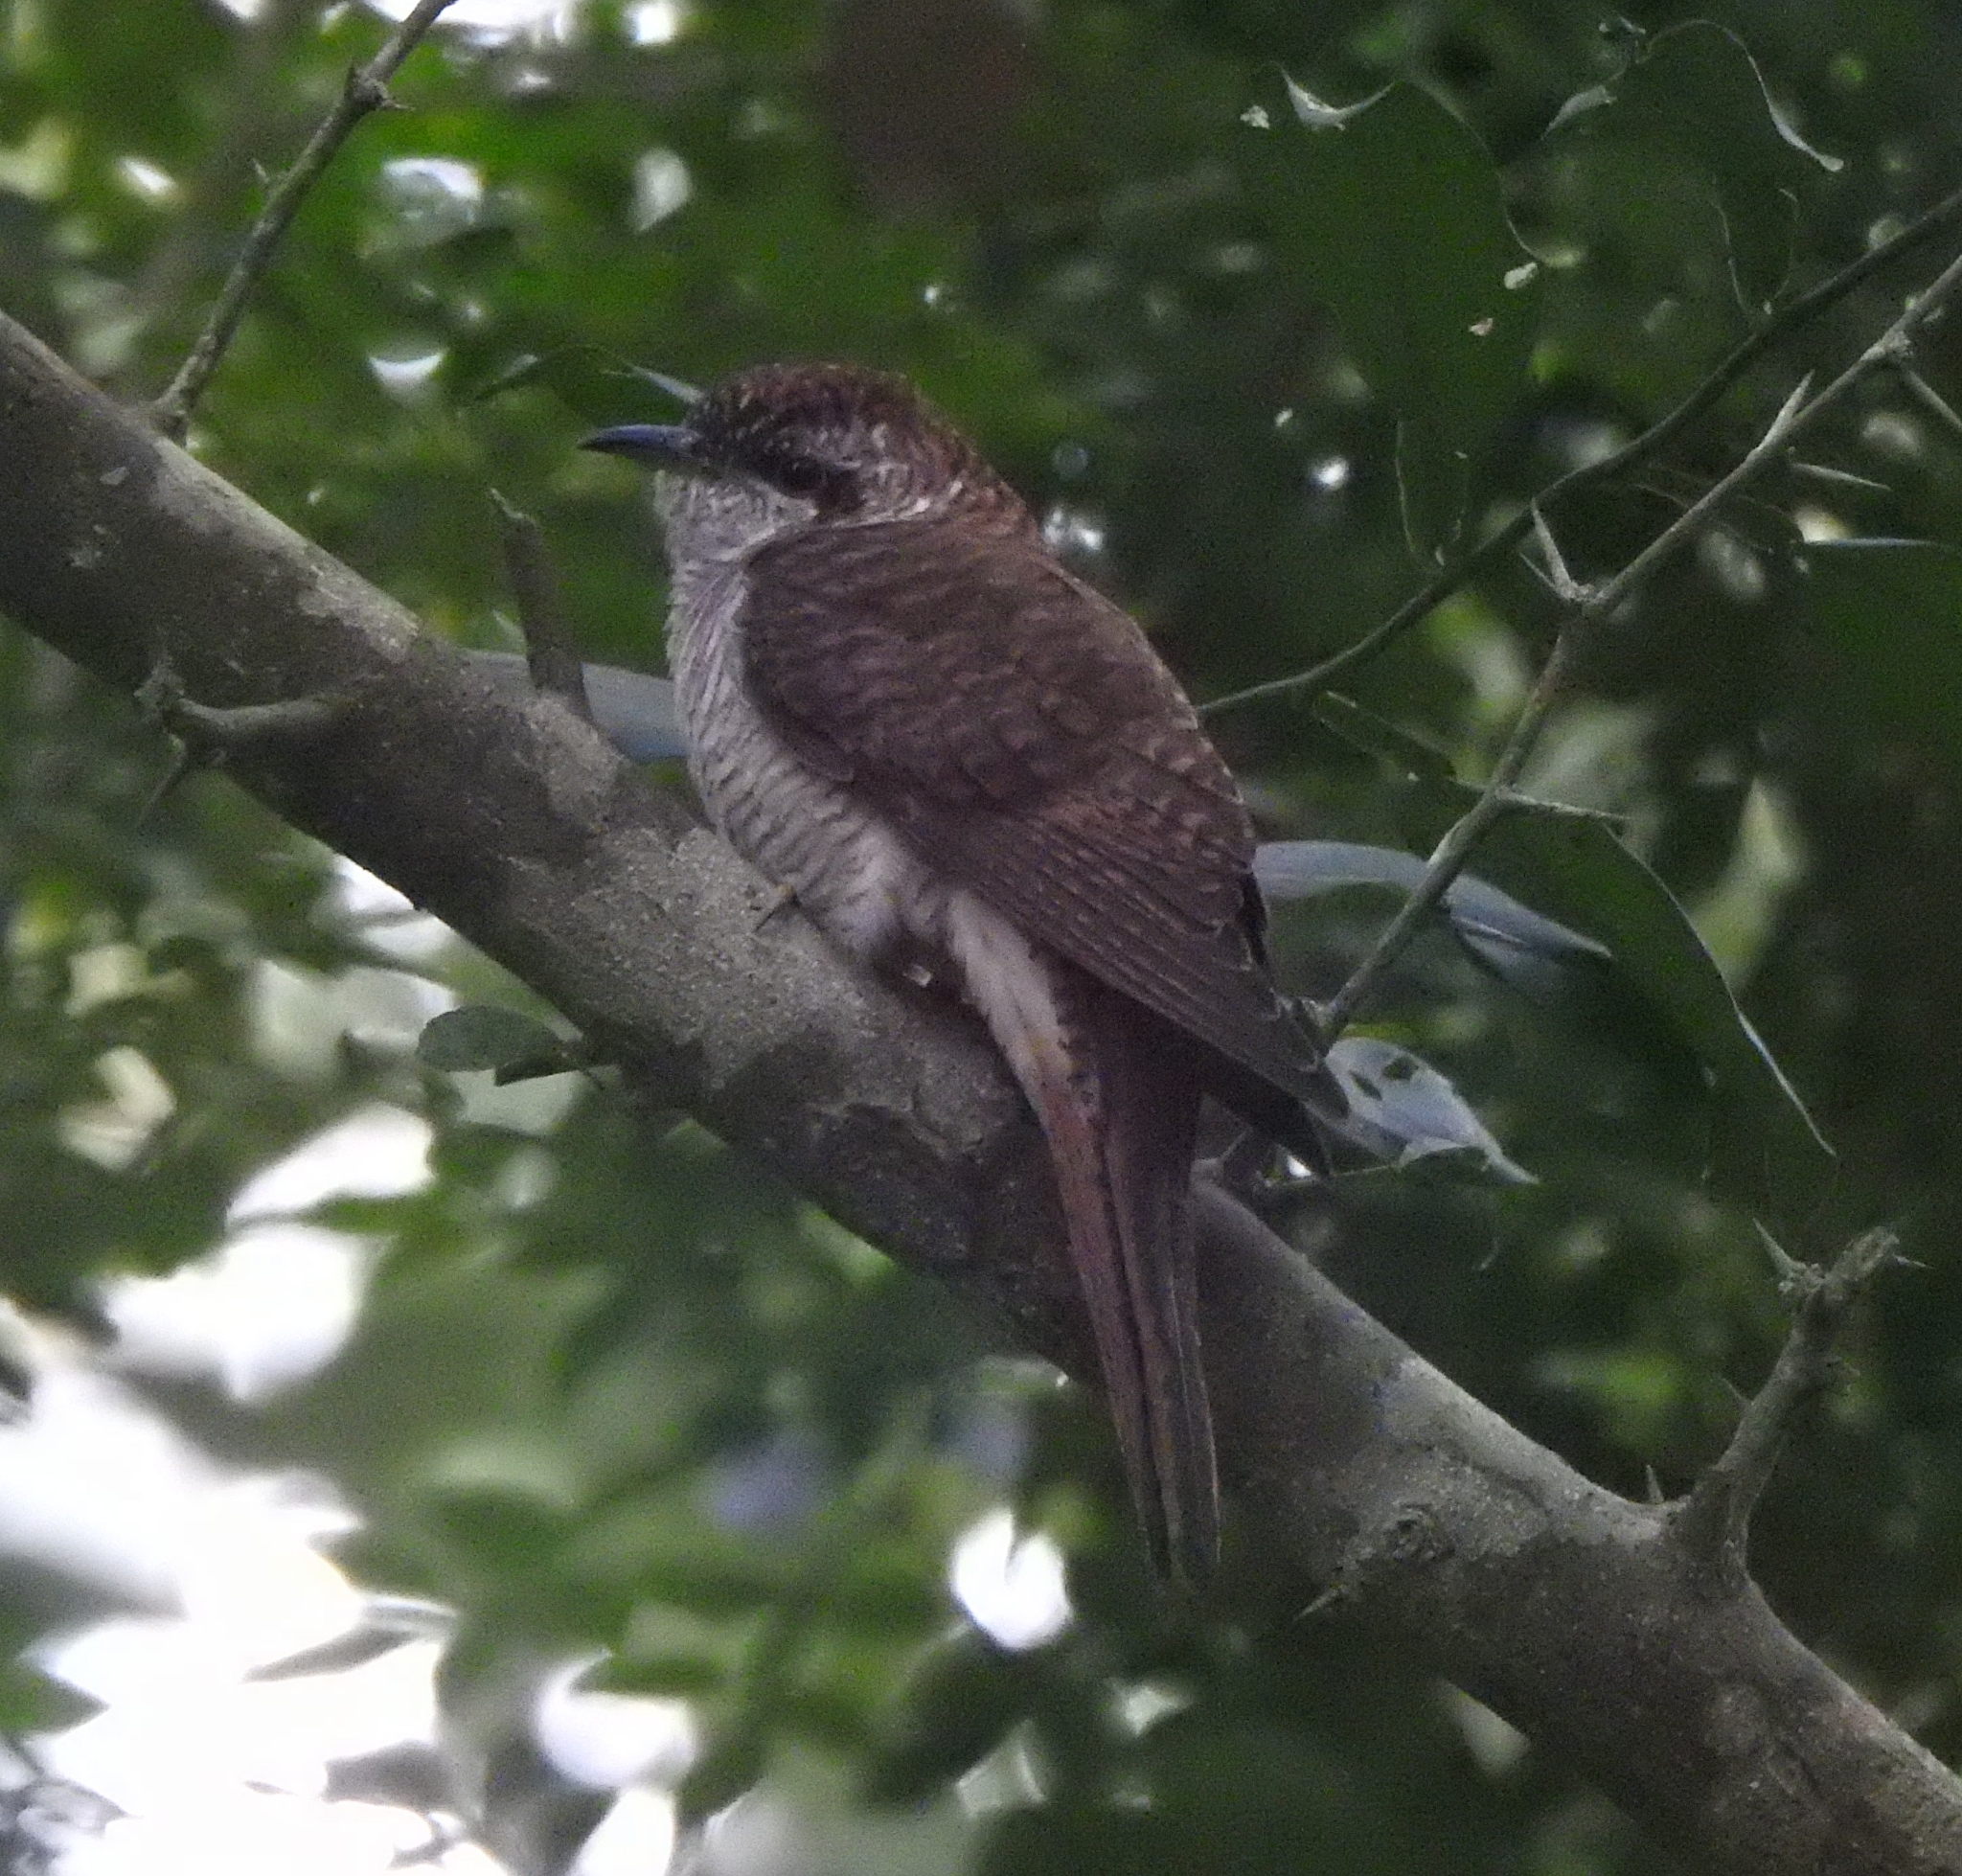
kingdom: Animalia
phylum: Chordata
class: Aves
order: Cuculiformes
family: Cuculidae
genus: Cacomantis
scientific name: Cacomantis sonneratii
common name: Banded bay cuckoo
